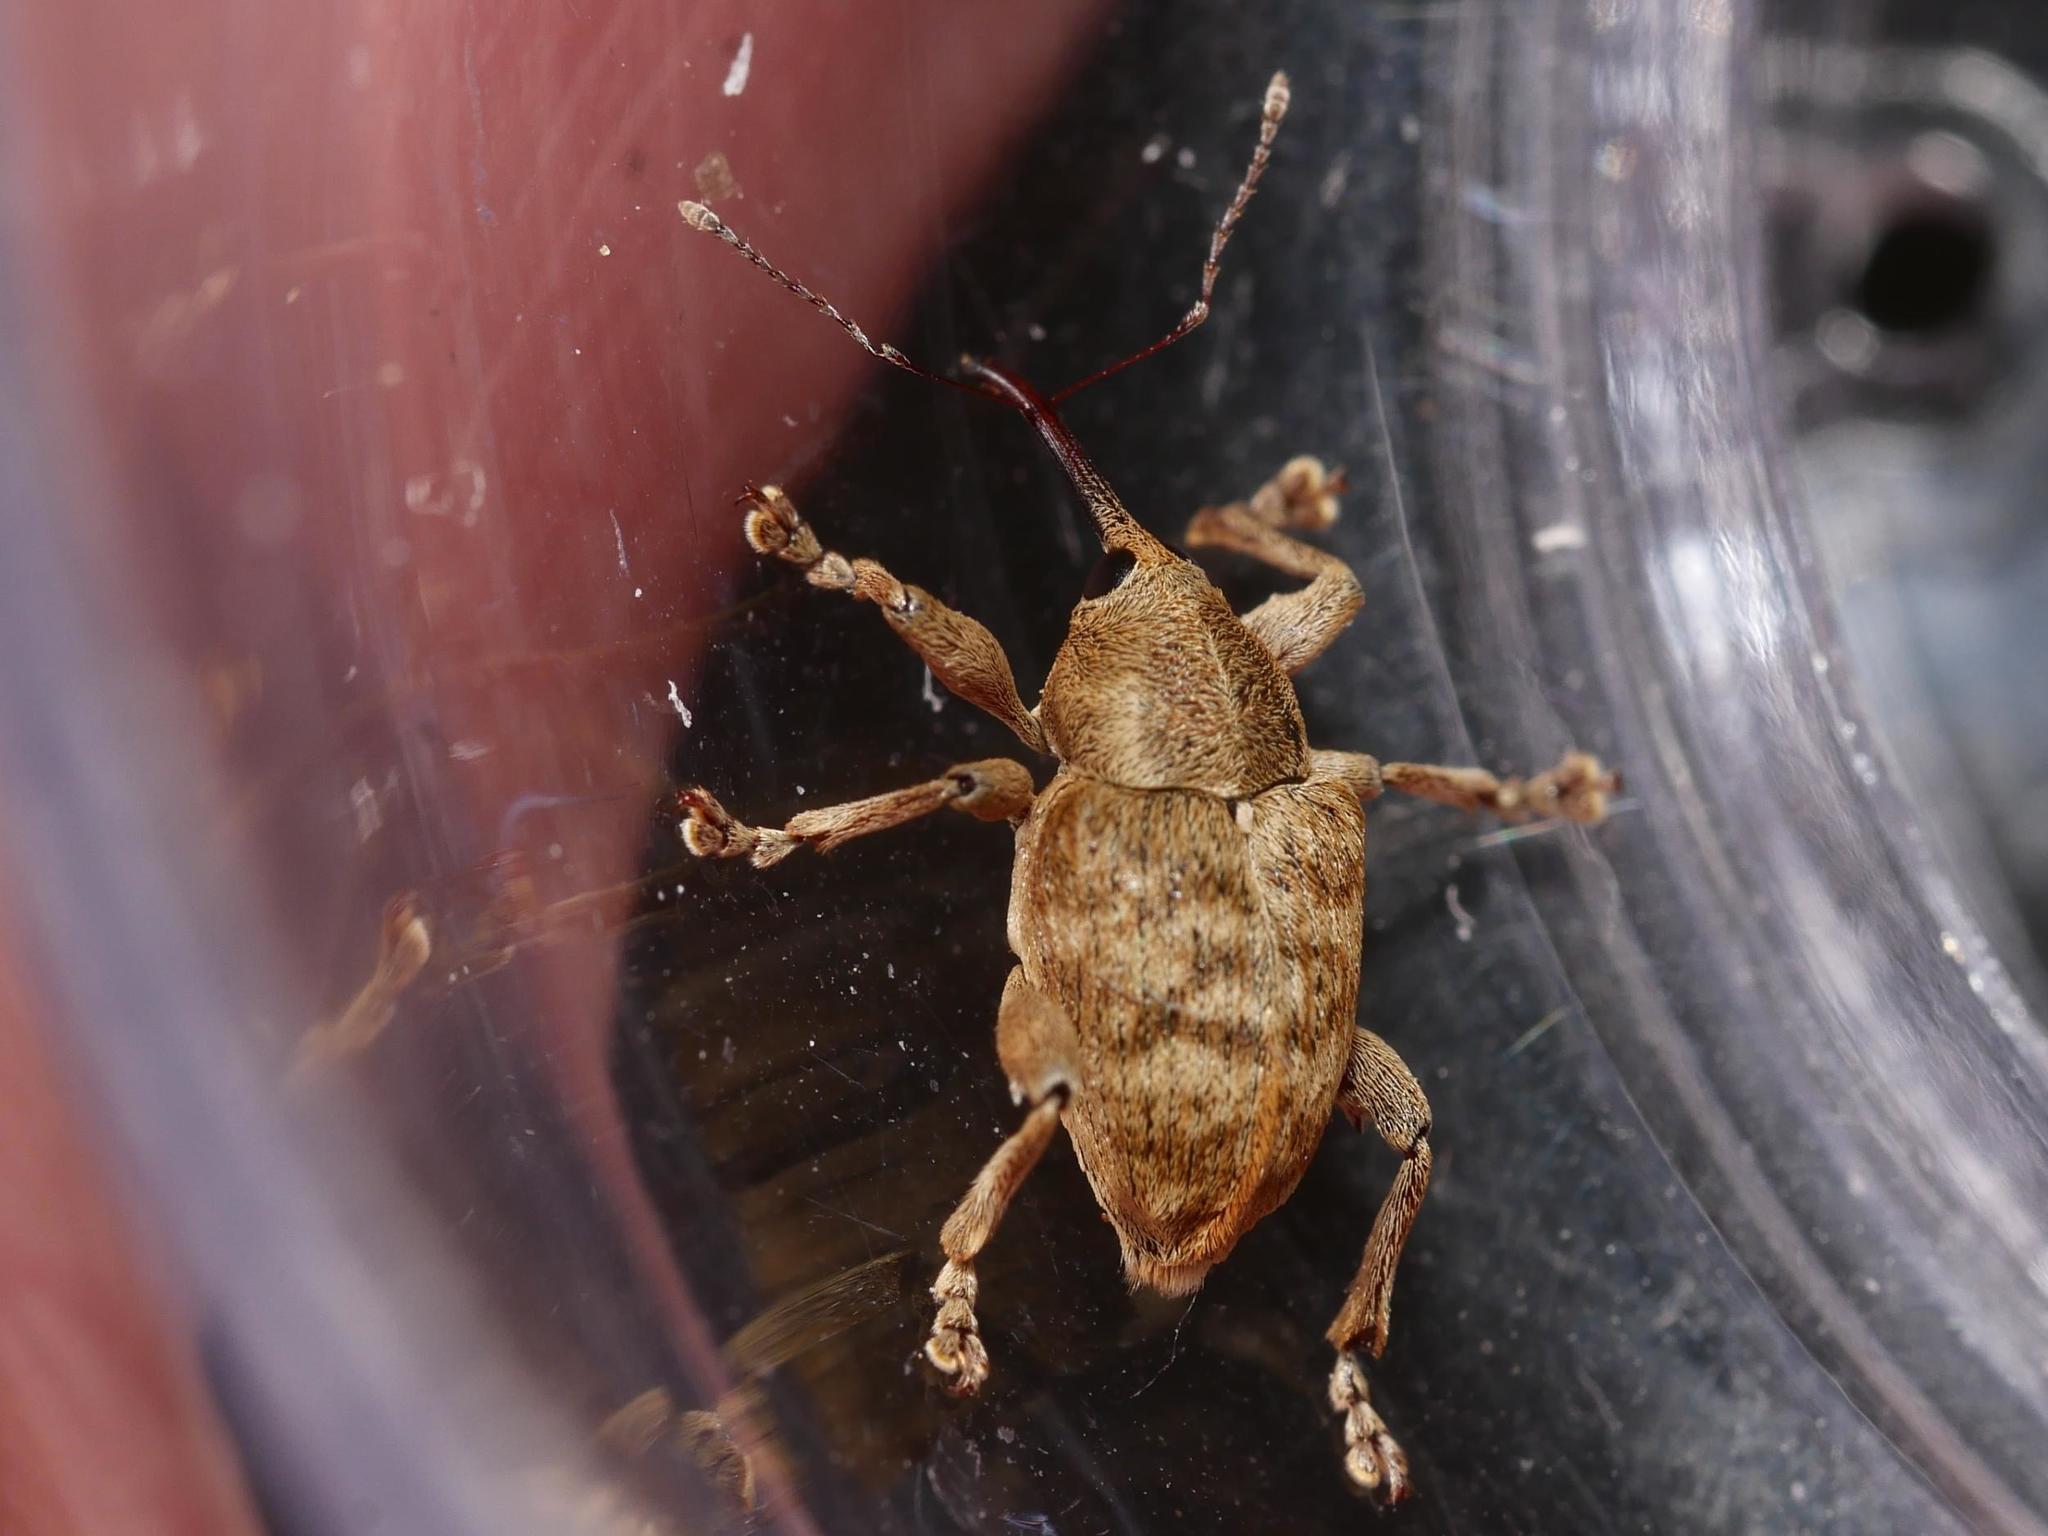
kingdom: Animalia
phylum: Arthropoda
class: Insecta
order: Coleoptera
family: Curculionidae
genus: Curculio
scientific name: Curculio venosus
